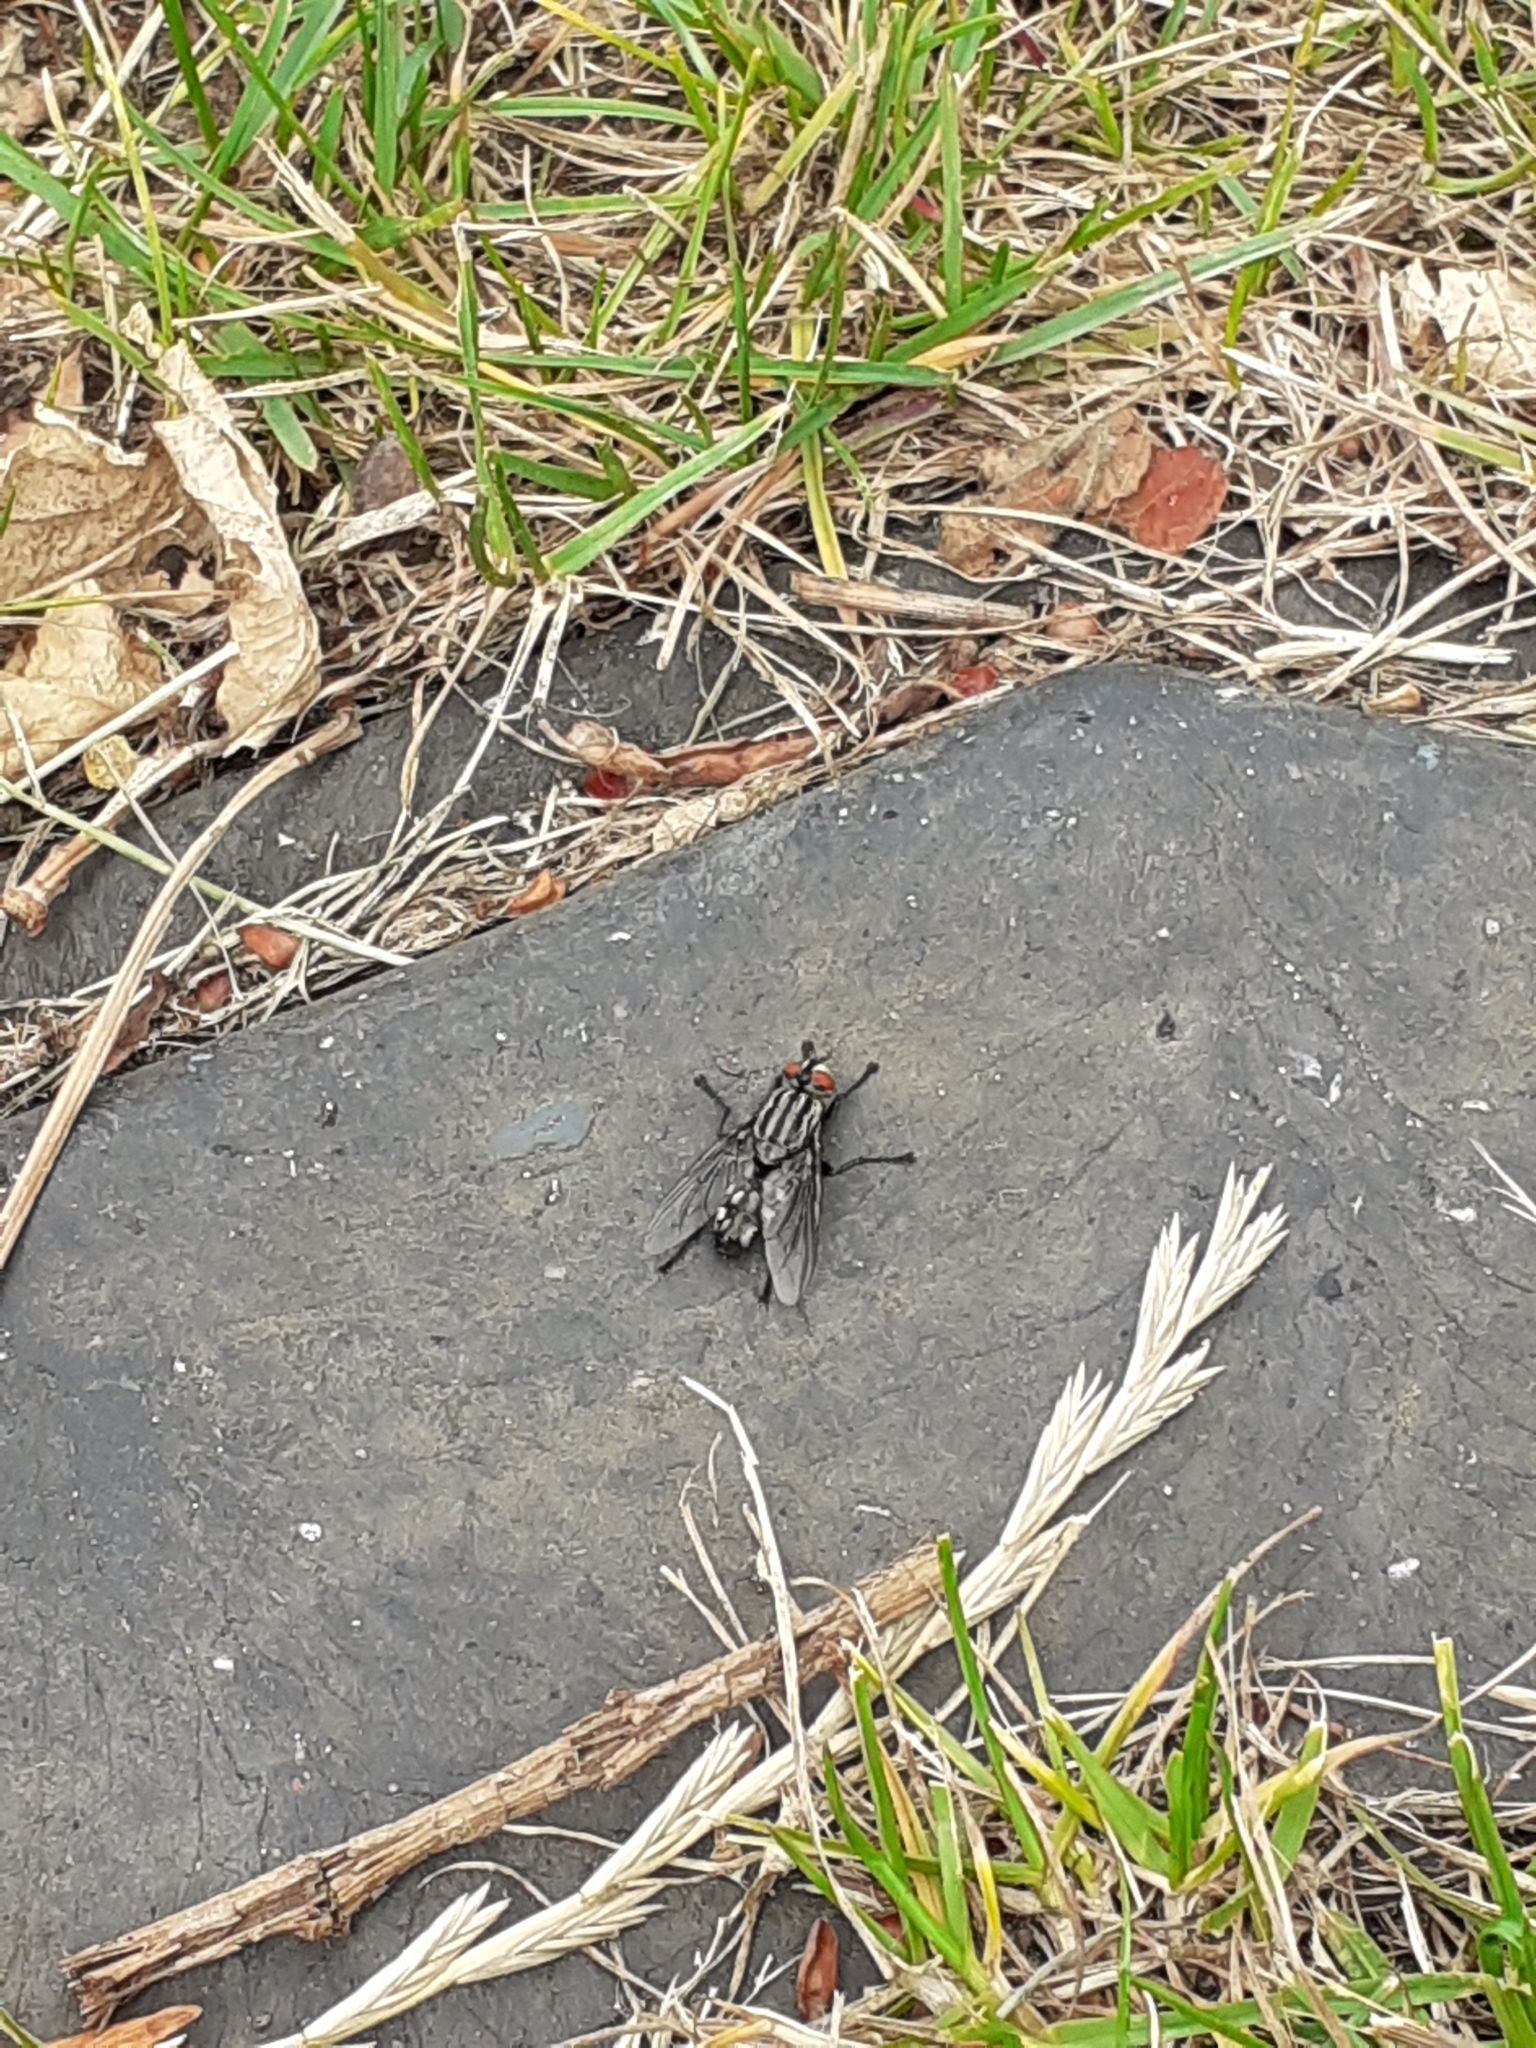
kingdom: Animalia
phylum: Arthropoda
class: Insecta
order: Diptera
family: Sarcophagidae
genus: Sarcophaga
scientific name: Sarcophaga
